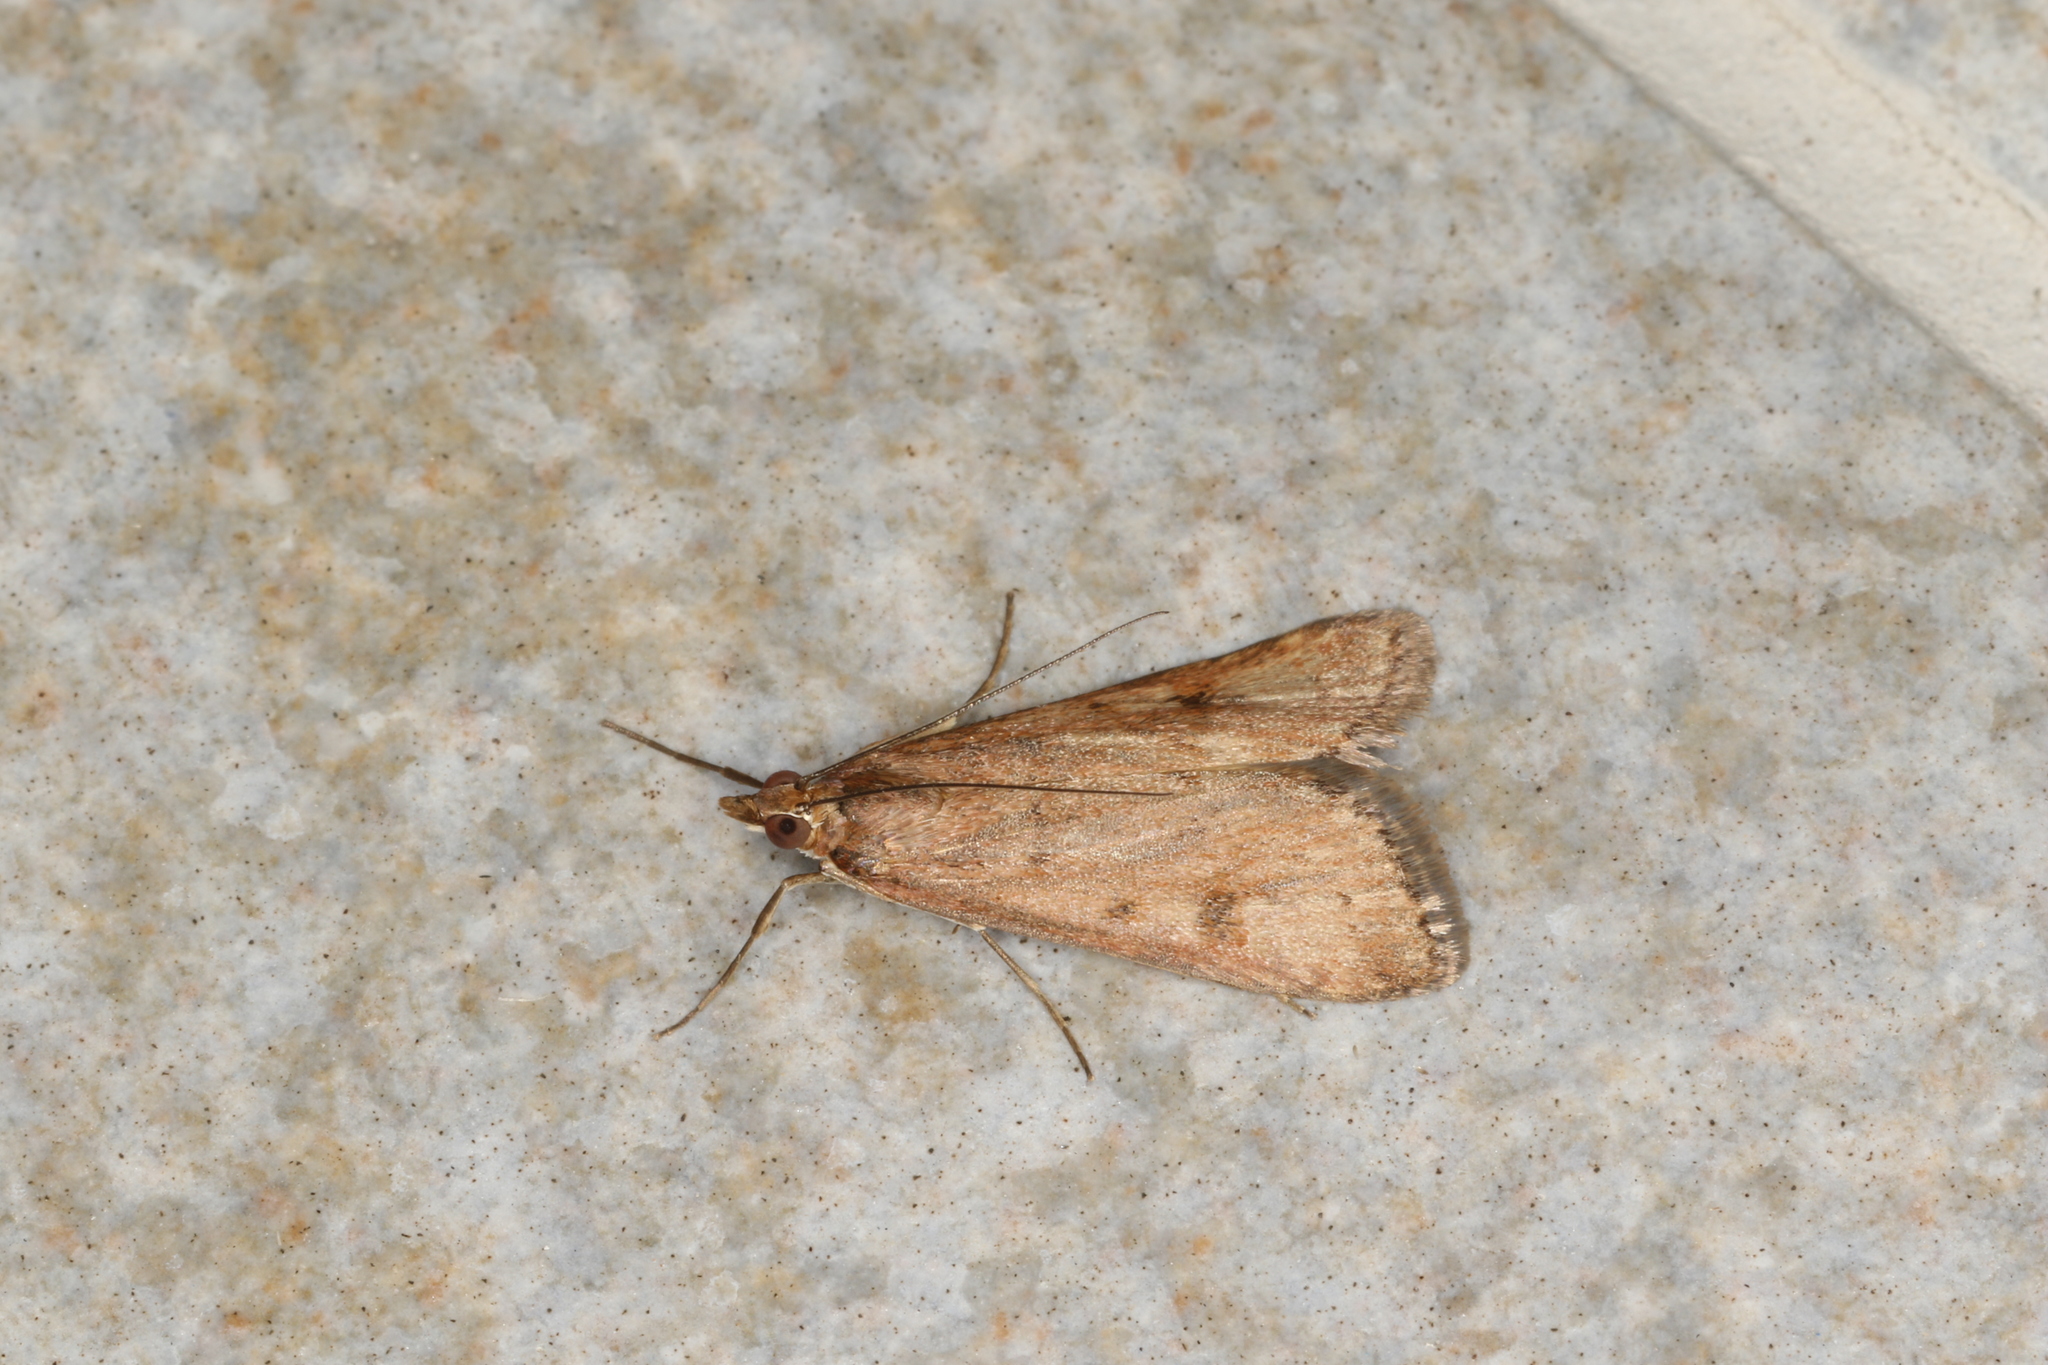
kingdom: Animalia
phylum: Arthropoda
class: Insecta
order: Lepidoptera
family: Crambidae
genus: Achyra
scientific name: Achyra affinitalis
